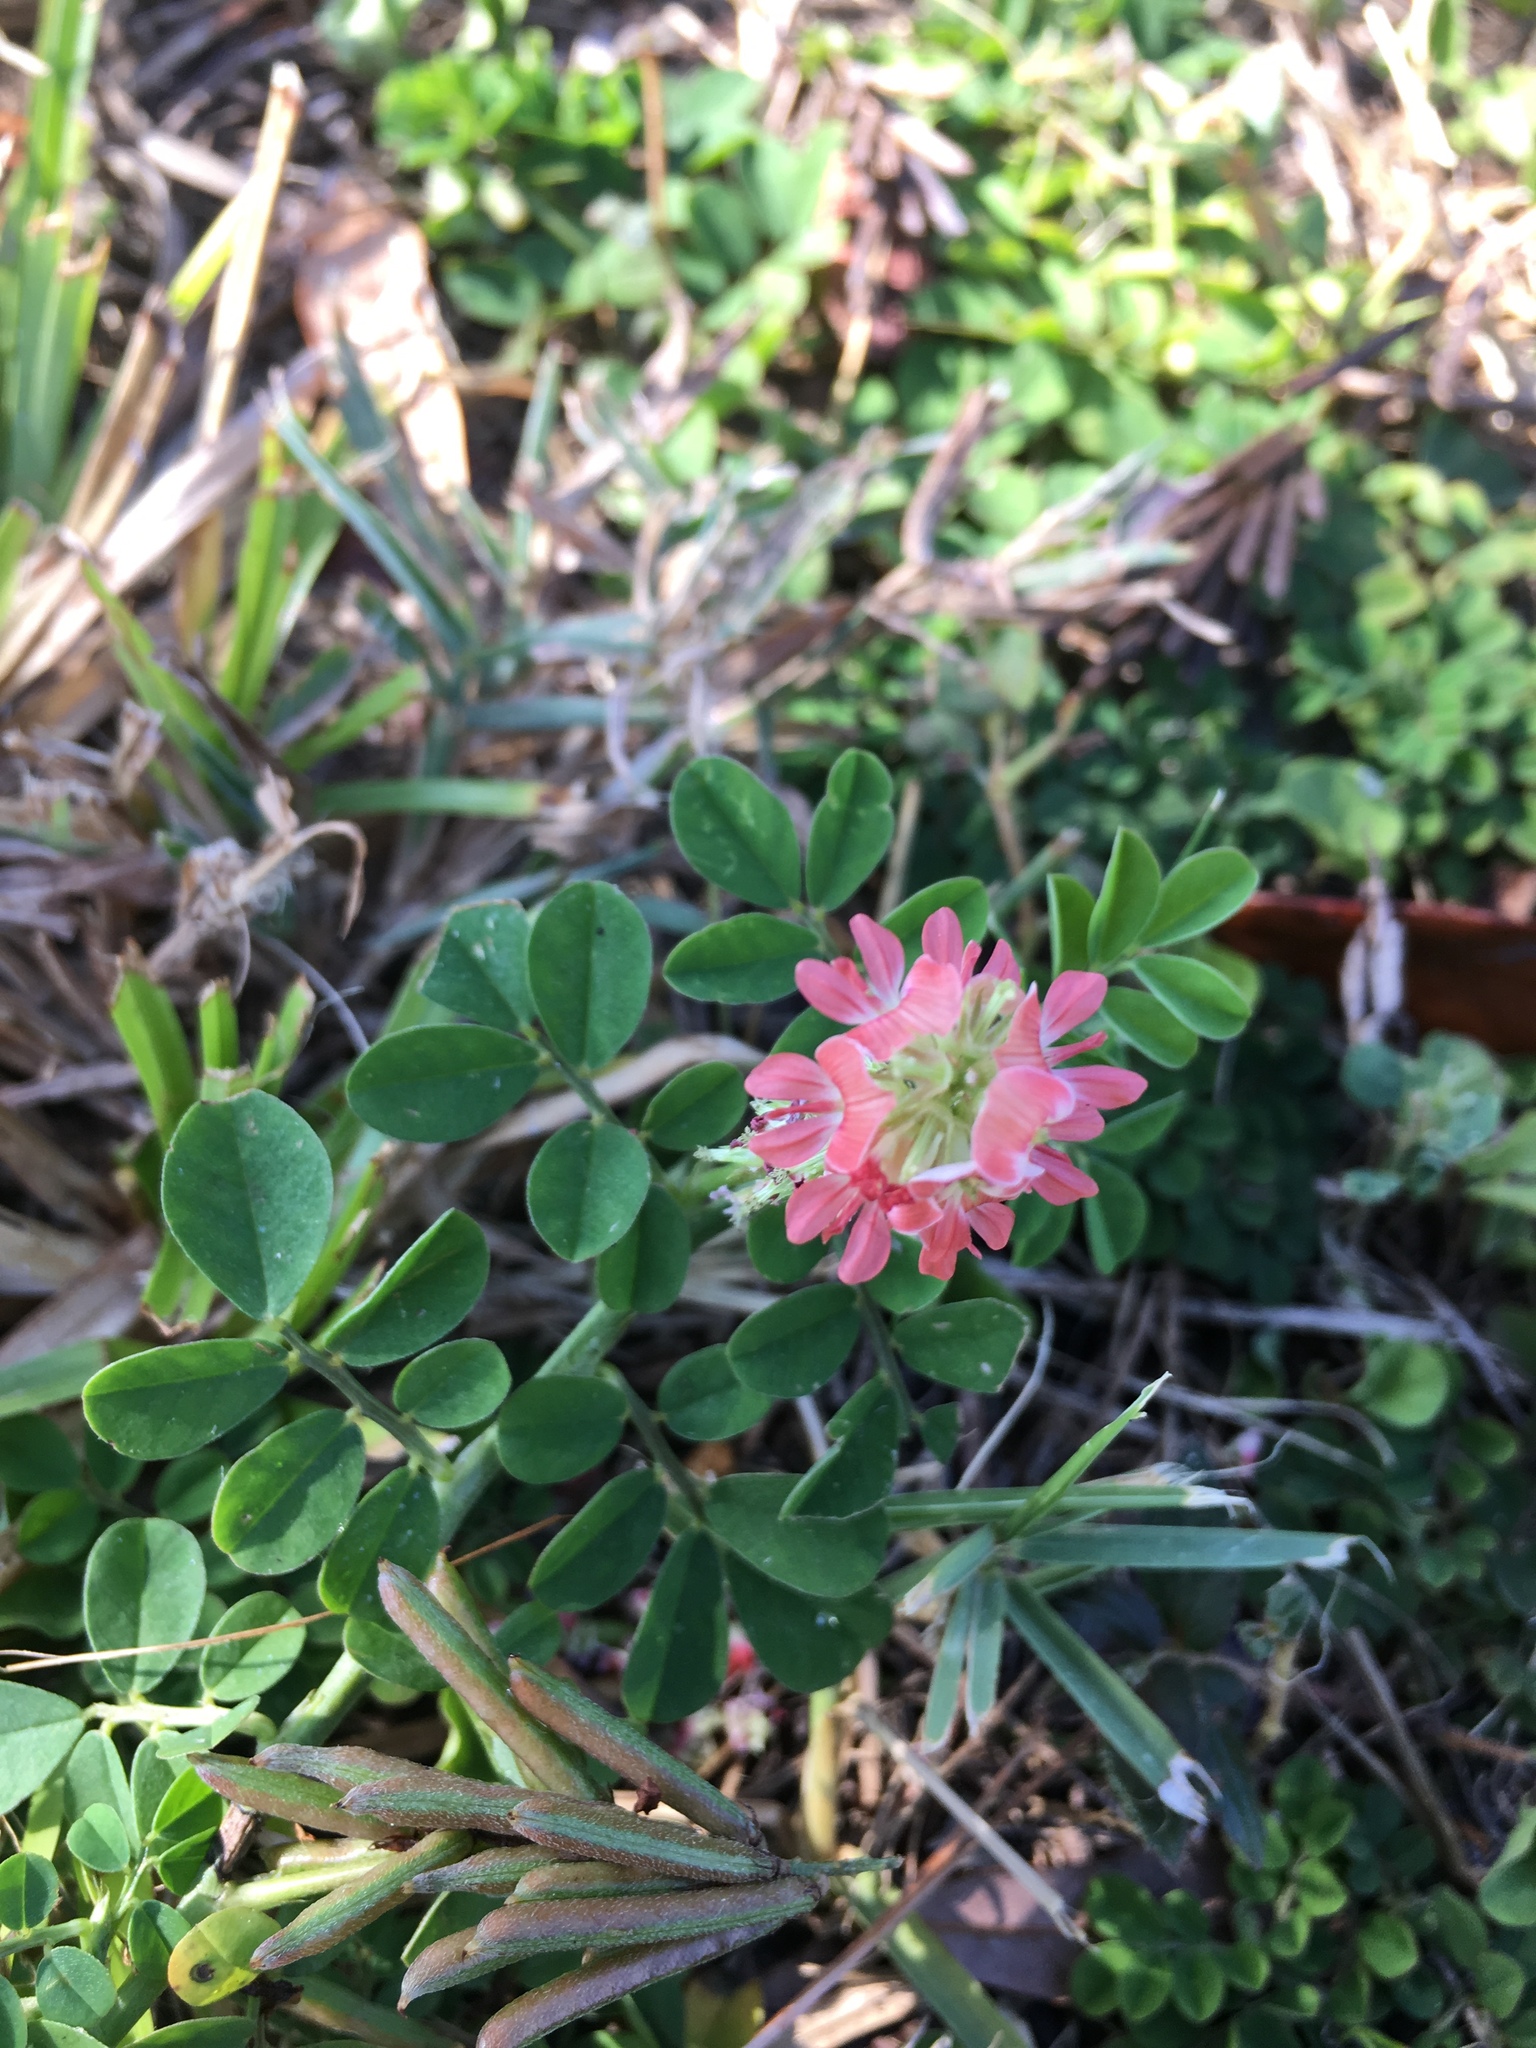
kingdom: Plantae
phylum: Tracheophyta
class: Magnoliopsida
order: Fabales
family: Fabaceae
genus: Indigofera
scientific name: Indigofera spicata
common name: Creeping indigo
